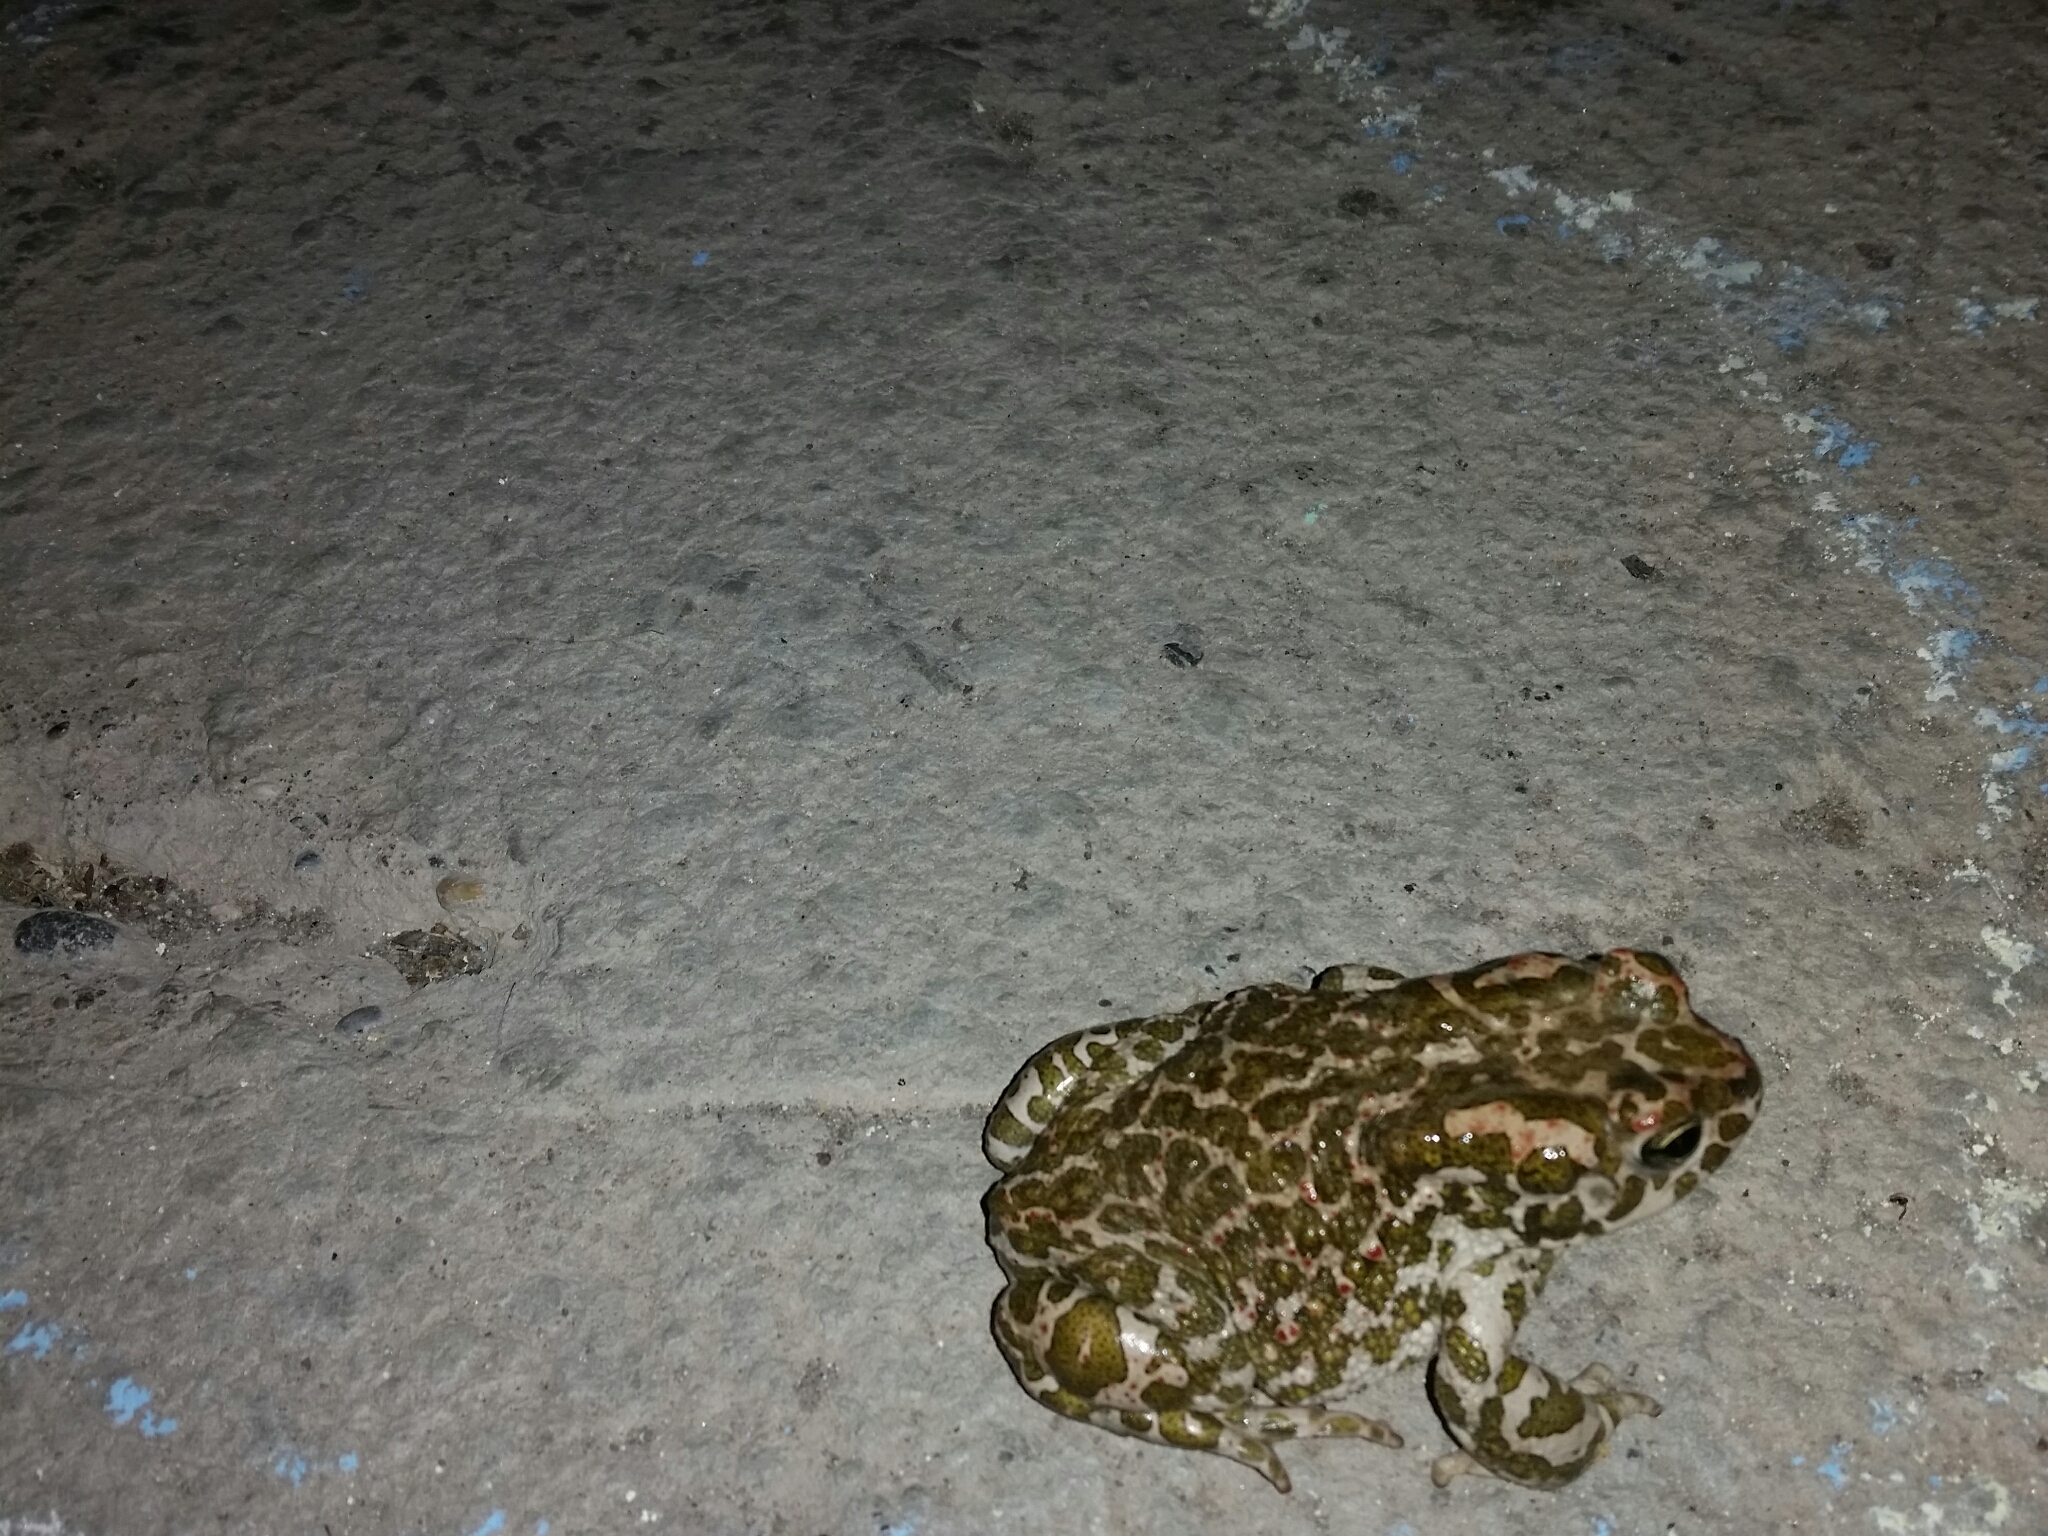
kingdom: Animalia
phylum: Chordata
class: Amphibia
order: Anura
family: Bufonidae
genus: Bufotes
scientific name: Bufotes viridis
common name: European green toad
